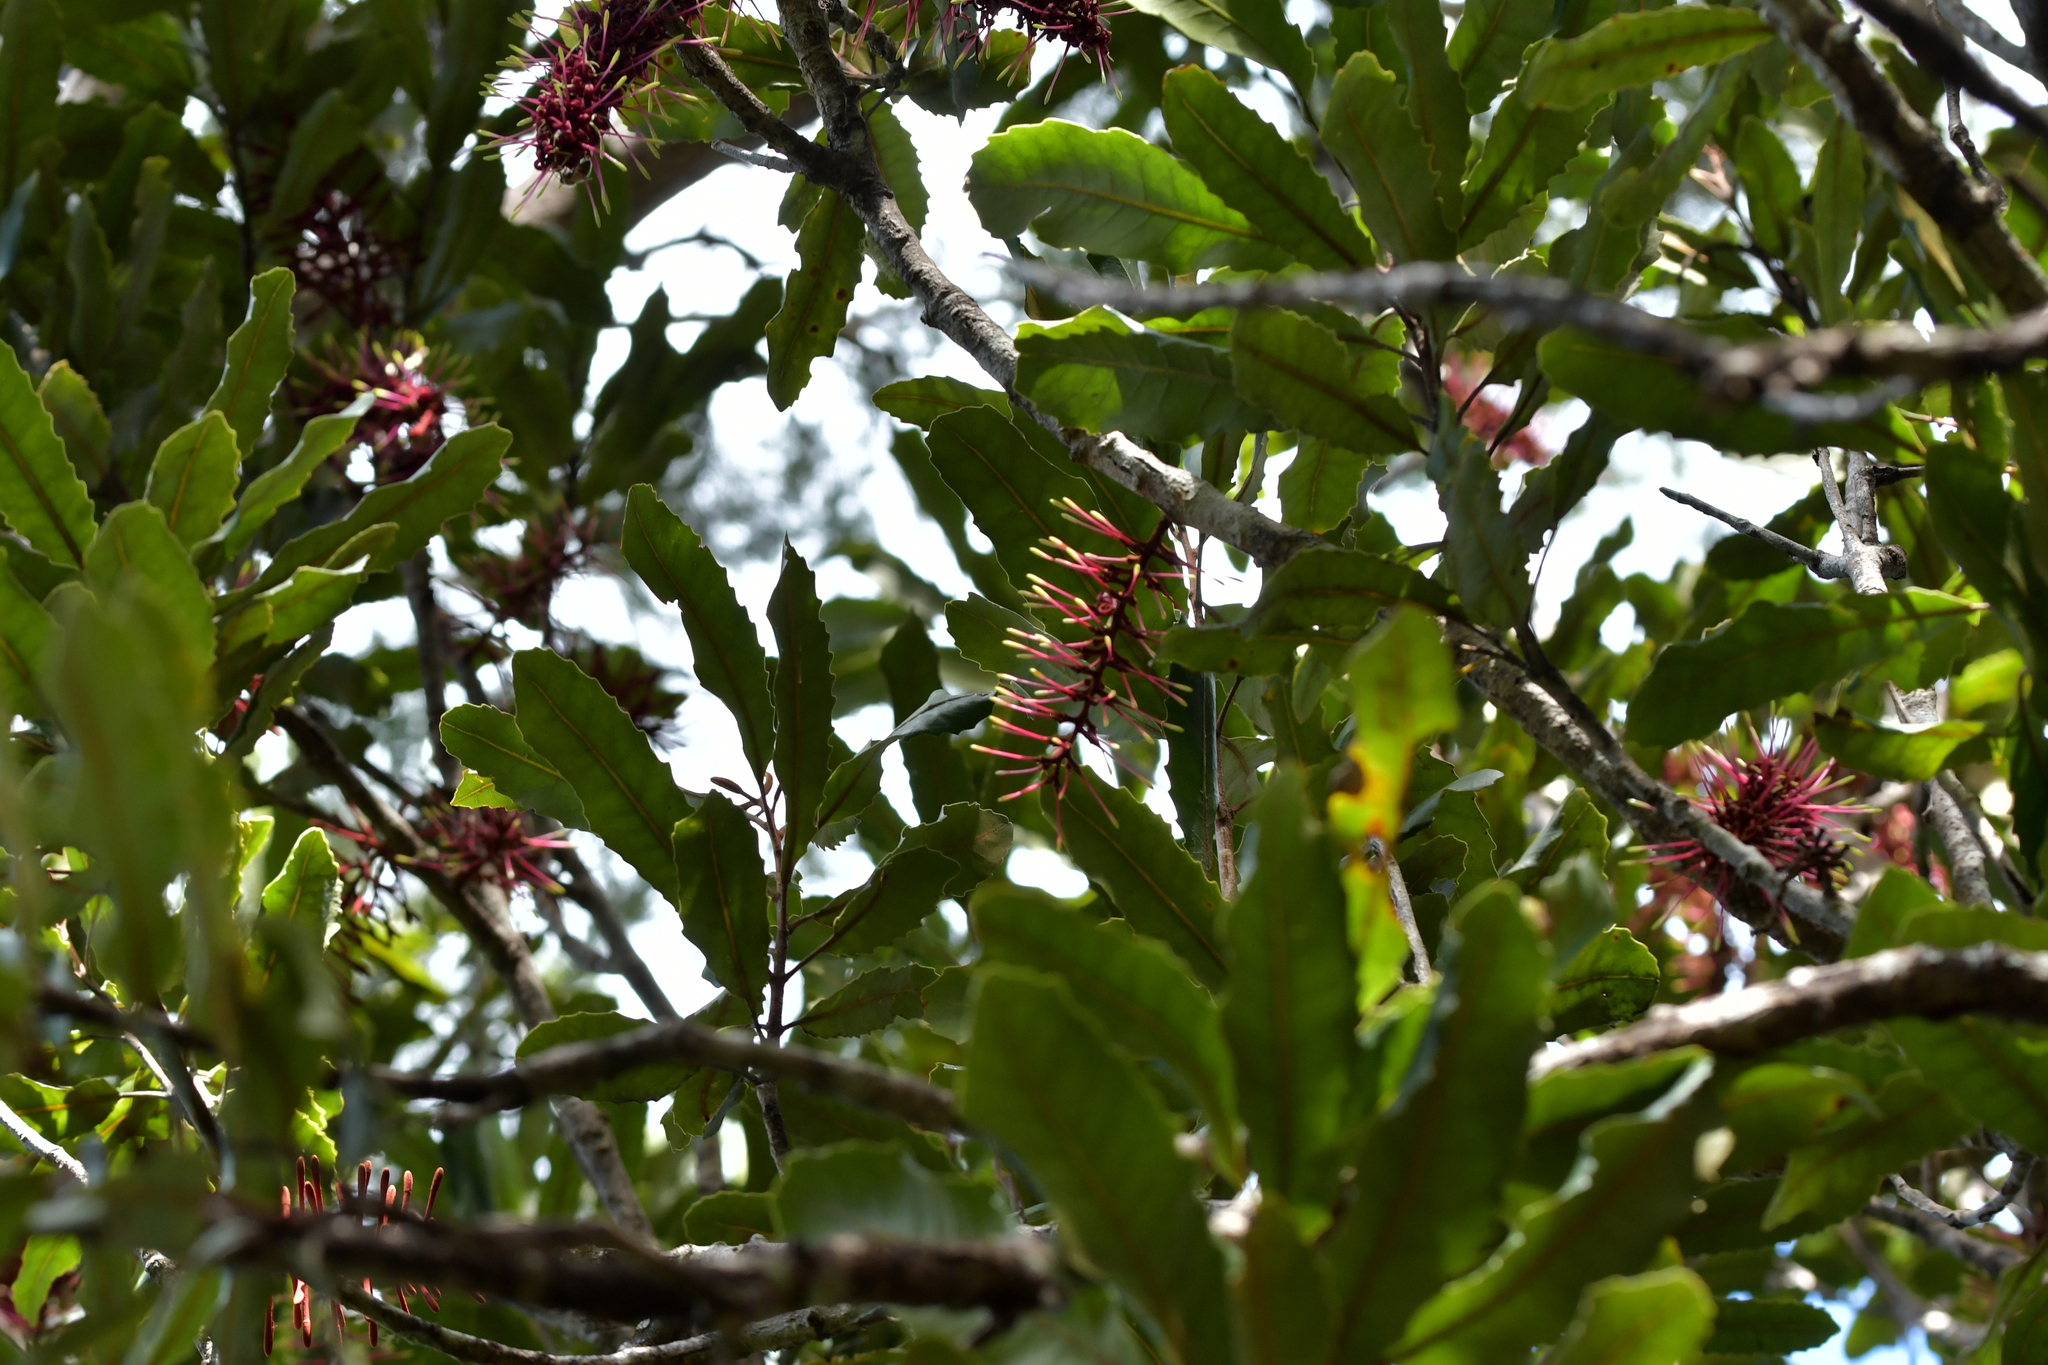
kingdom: Plantae
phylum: Tracheophyta
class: Magnoliopsida
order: Proteales
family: Proteaceae
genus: Knightia
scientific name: Knightia excelsa
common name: New zealand-honeysuckle
